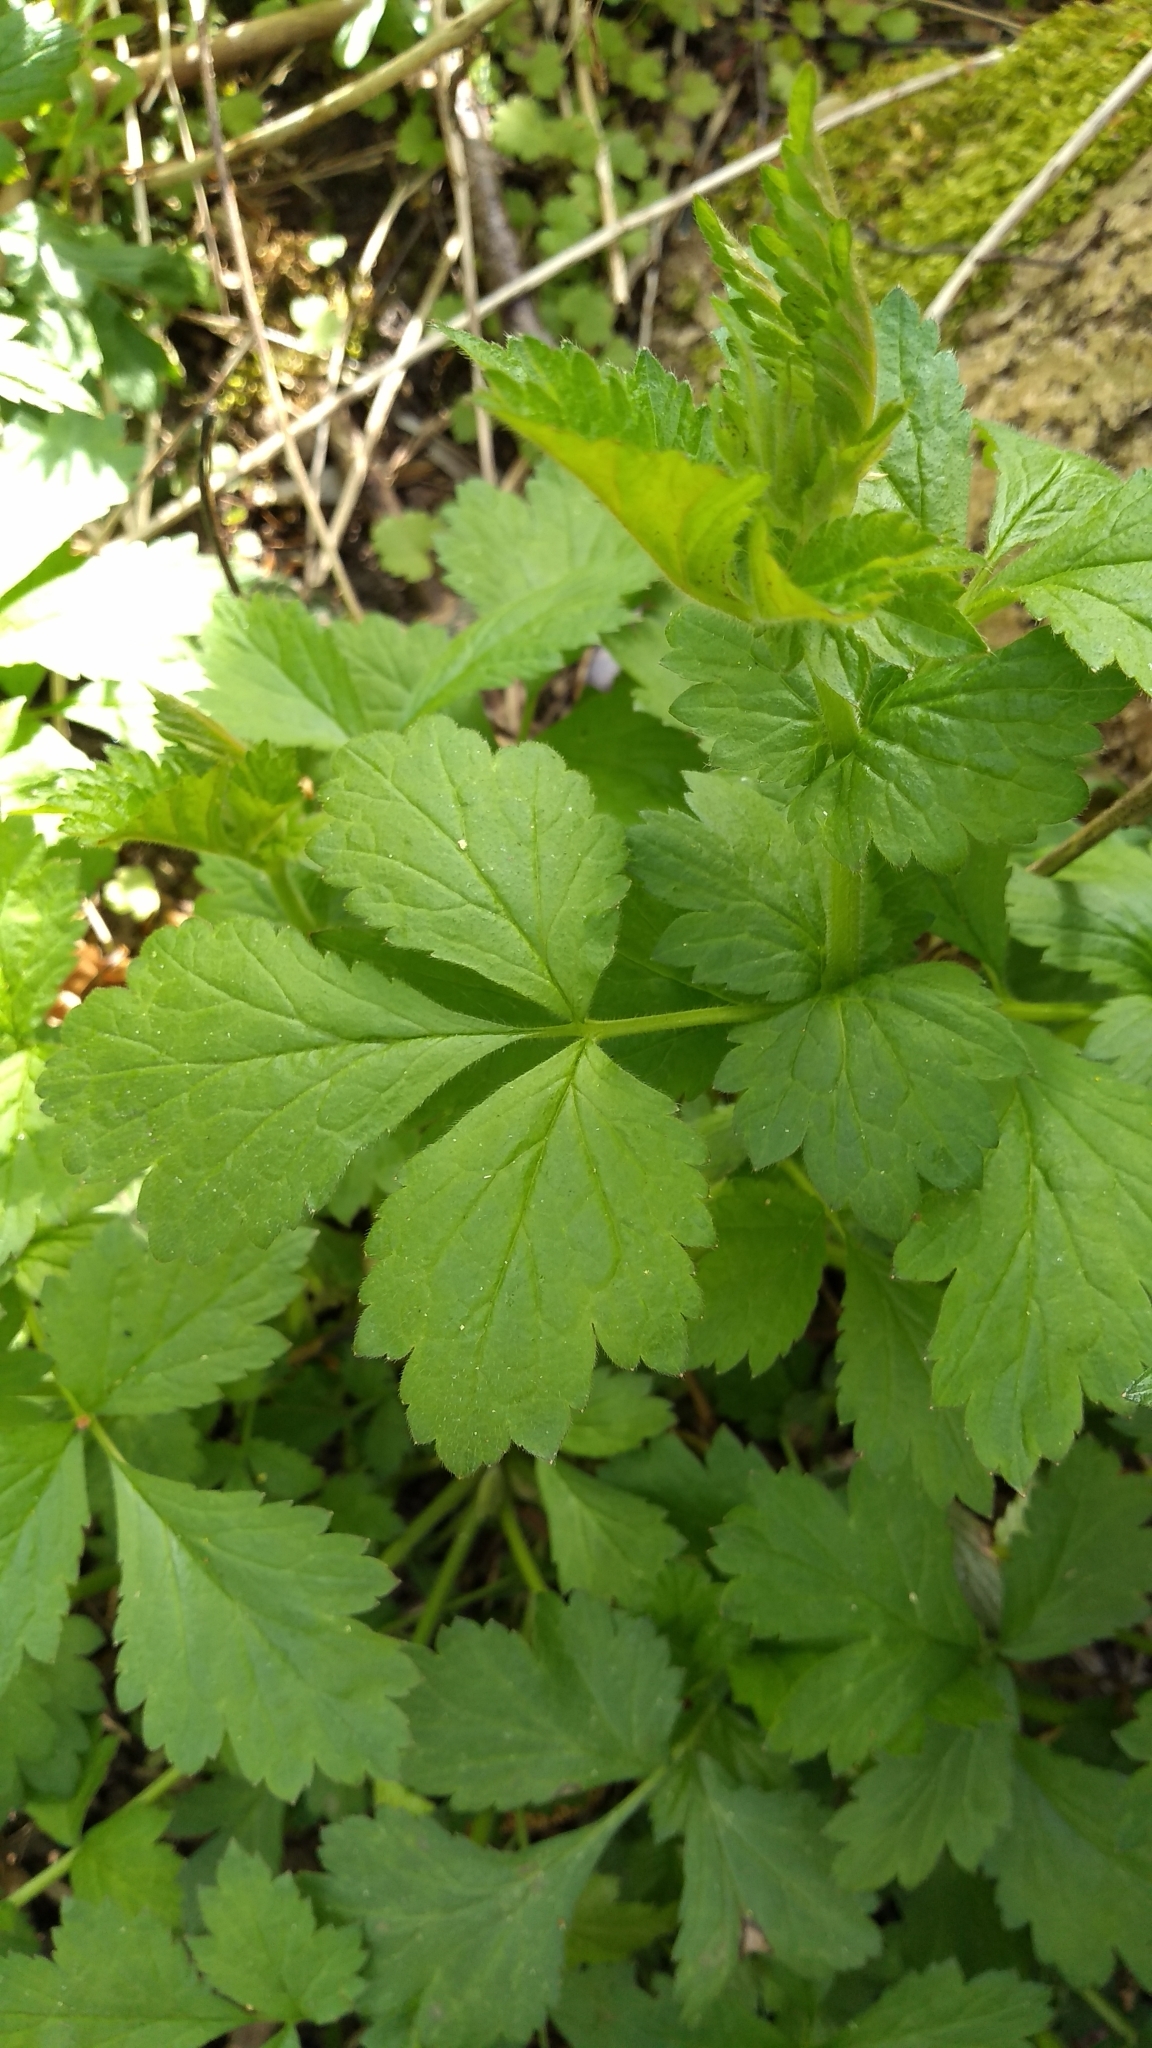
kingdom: Plantae
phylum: Tracheophyta
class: Magnoliopsida
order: Rosales
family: Rosaceae
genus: Geum
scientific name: Geum urbanum
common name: Wood avens
